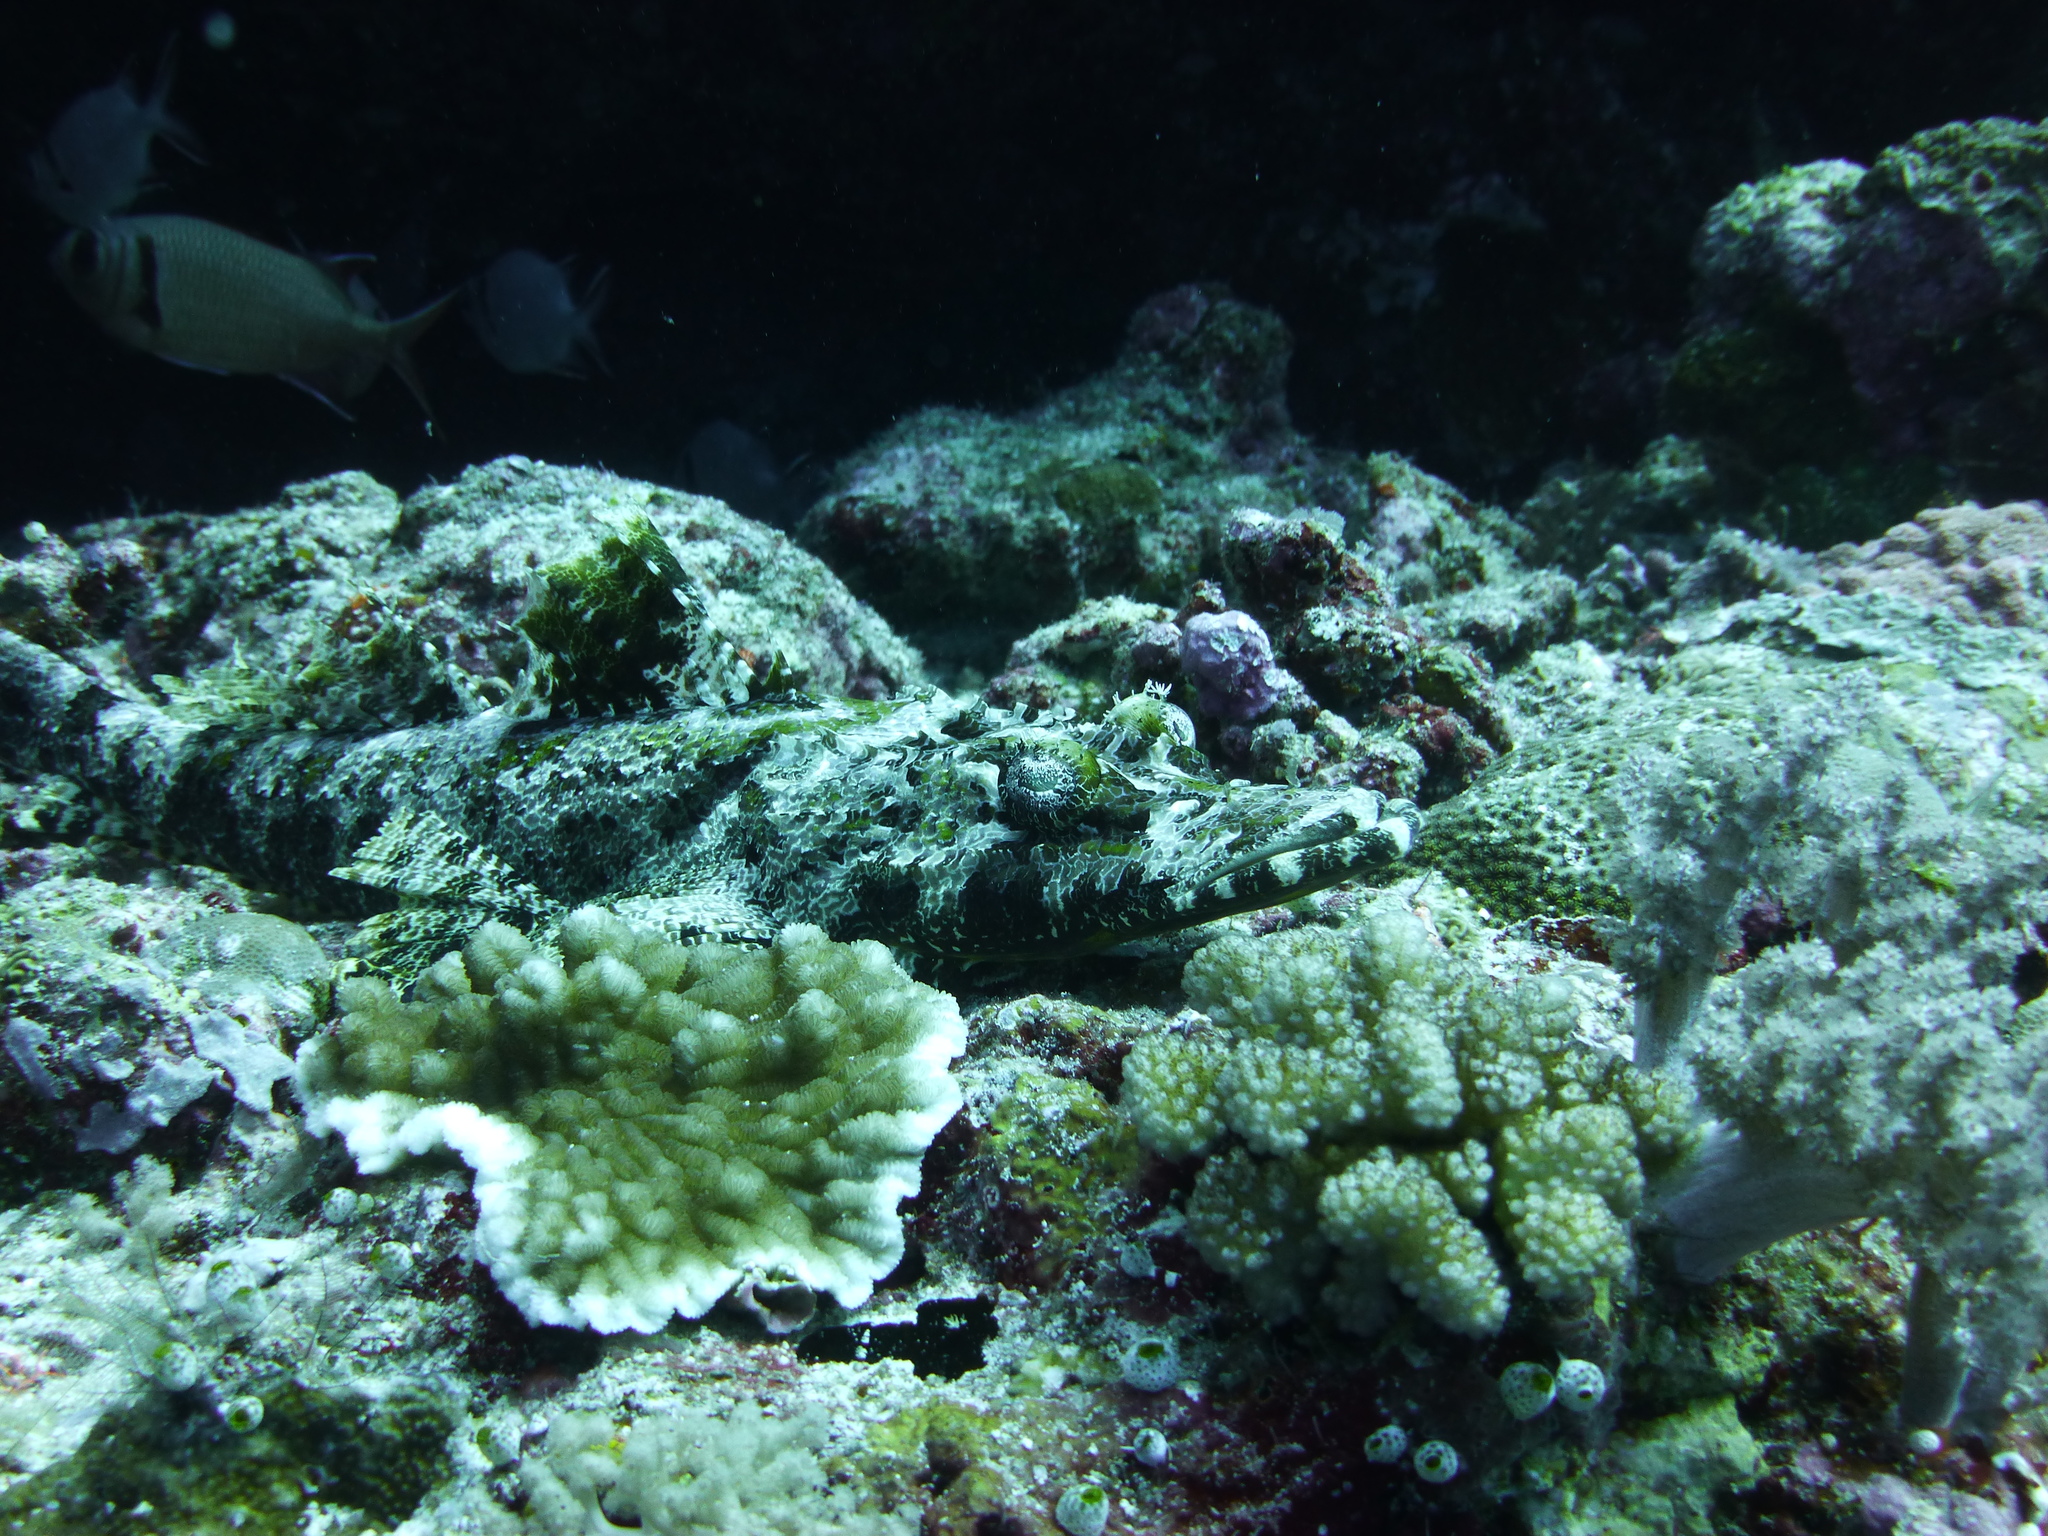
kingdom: Animalia
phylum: Chordata
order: Scorpaeniformes
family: Platycephalidae
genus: Cymbacephalus
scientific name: Cymbacephalus beauforti
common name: Crocodile fish
